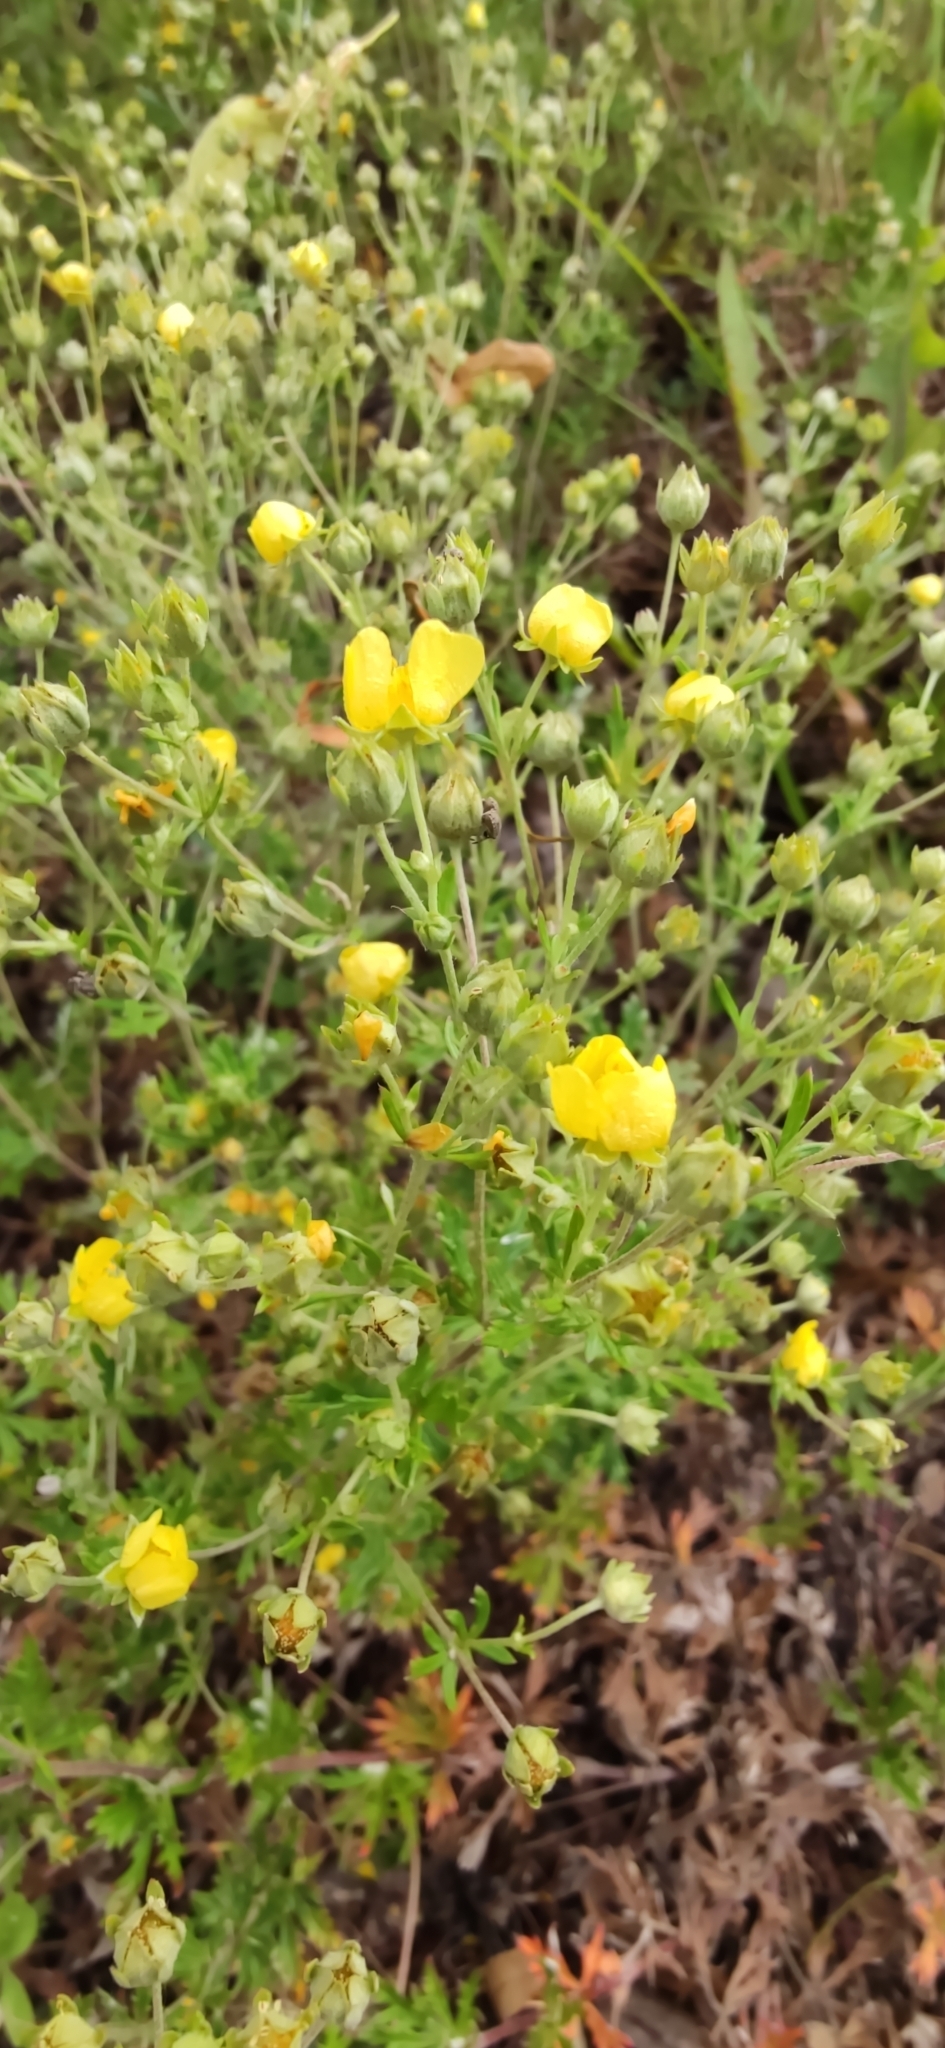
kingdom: Plantae
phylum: Tracheophyta
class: Magnoliopsida
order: Rosales
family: Rosaceae
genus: Potentilla
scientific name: Potentilla argentea
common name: Hoary cinquefoil
